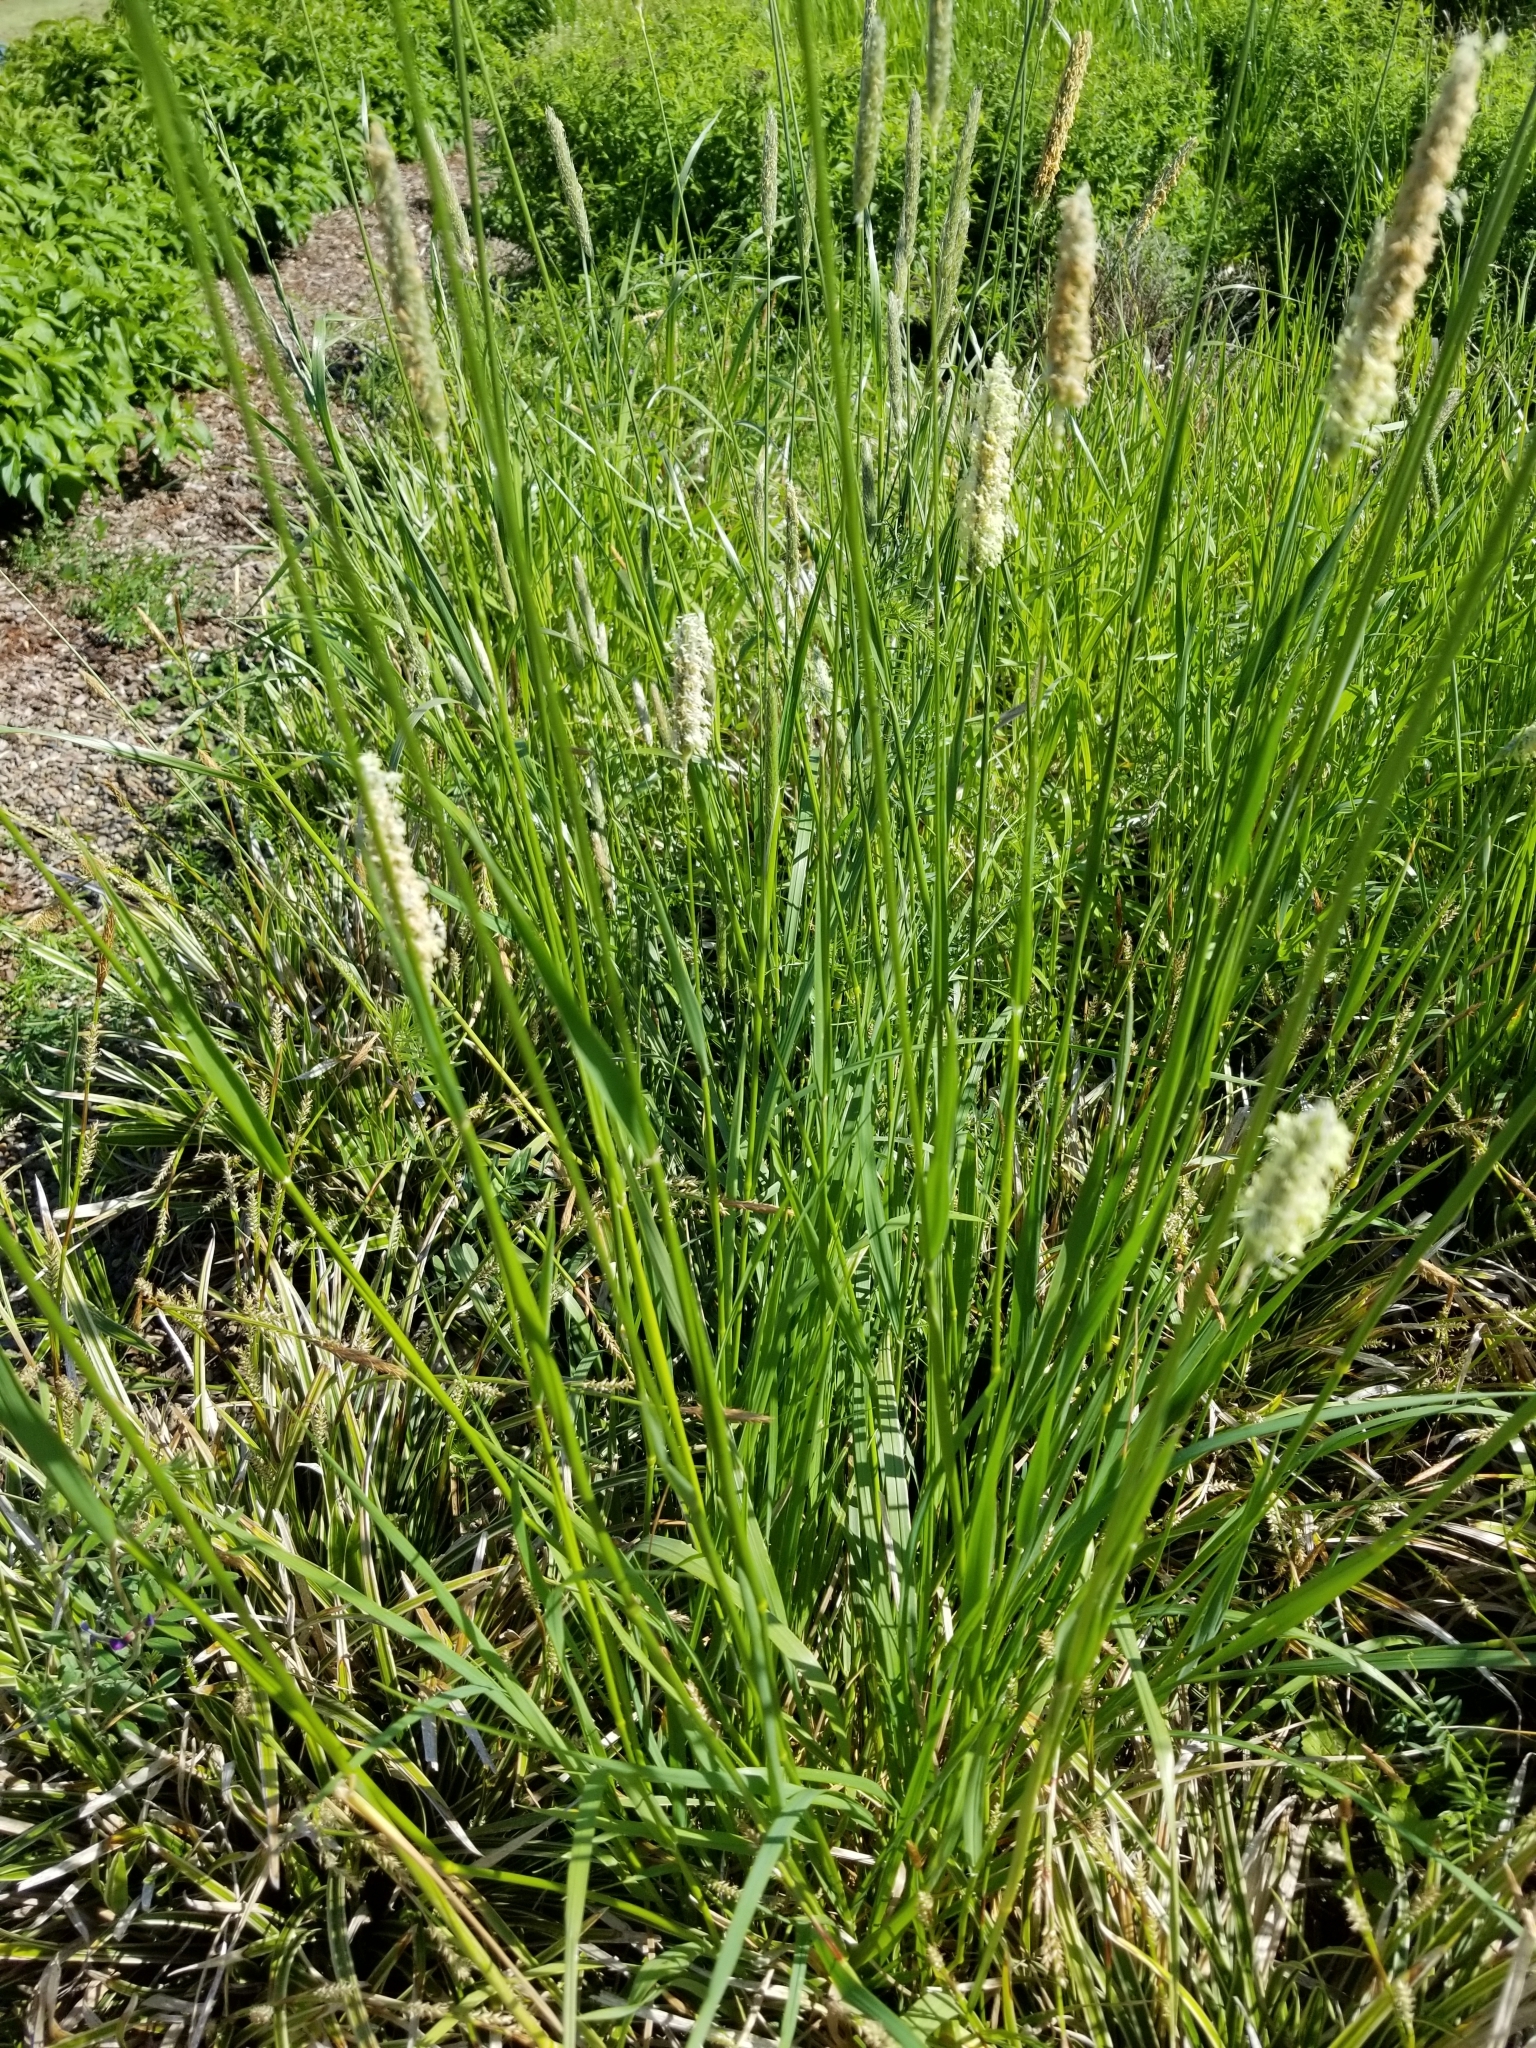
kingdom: Plantae
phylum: Tracheophyta
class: Liliopsida
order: Poales
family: Poaceae
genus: Alopecurus
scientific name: Alopecurus pratensis
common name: Meadow foxtail
